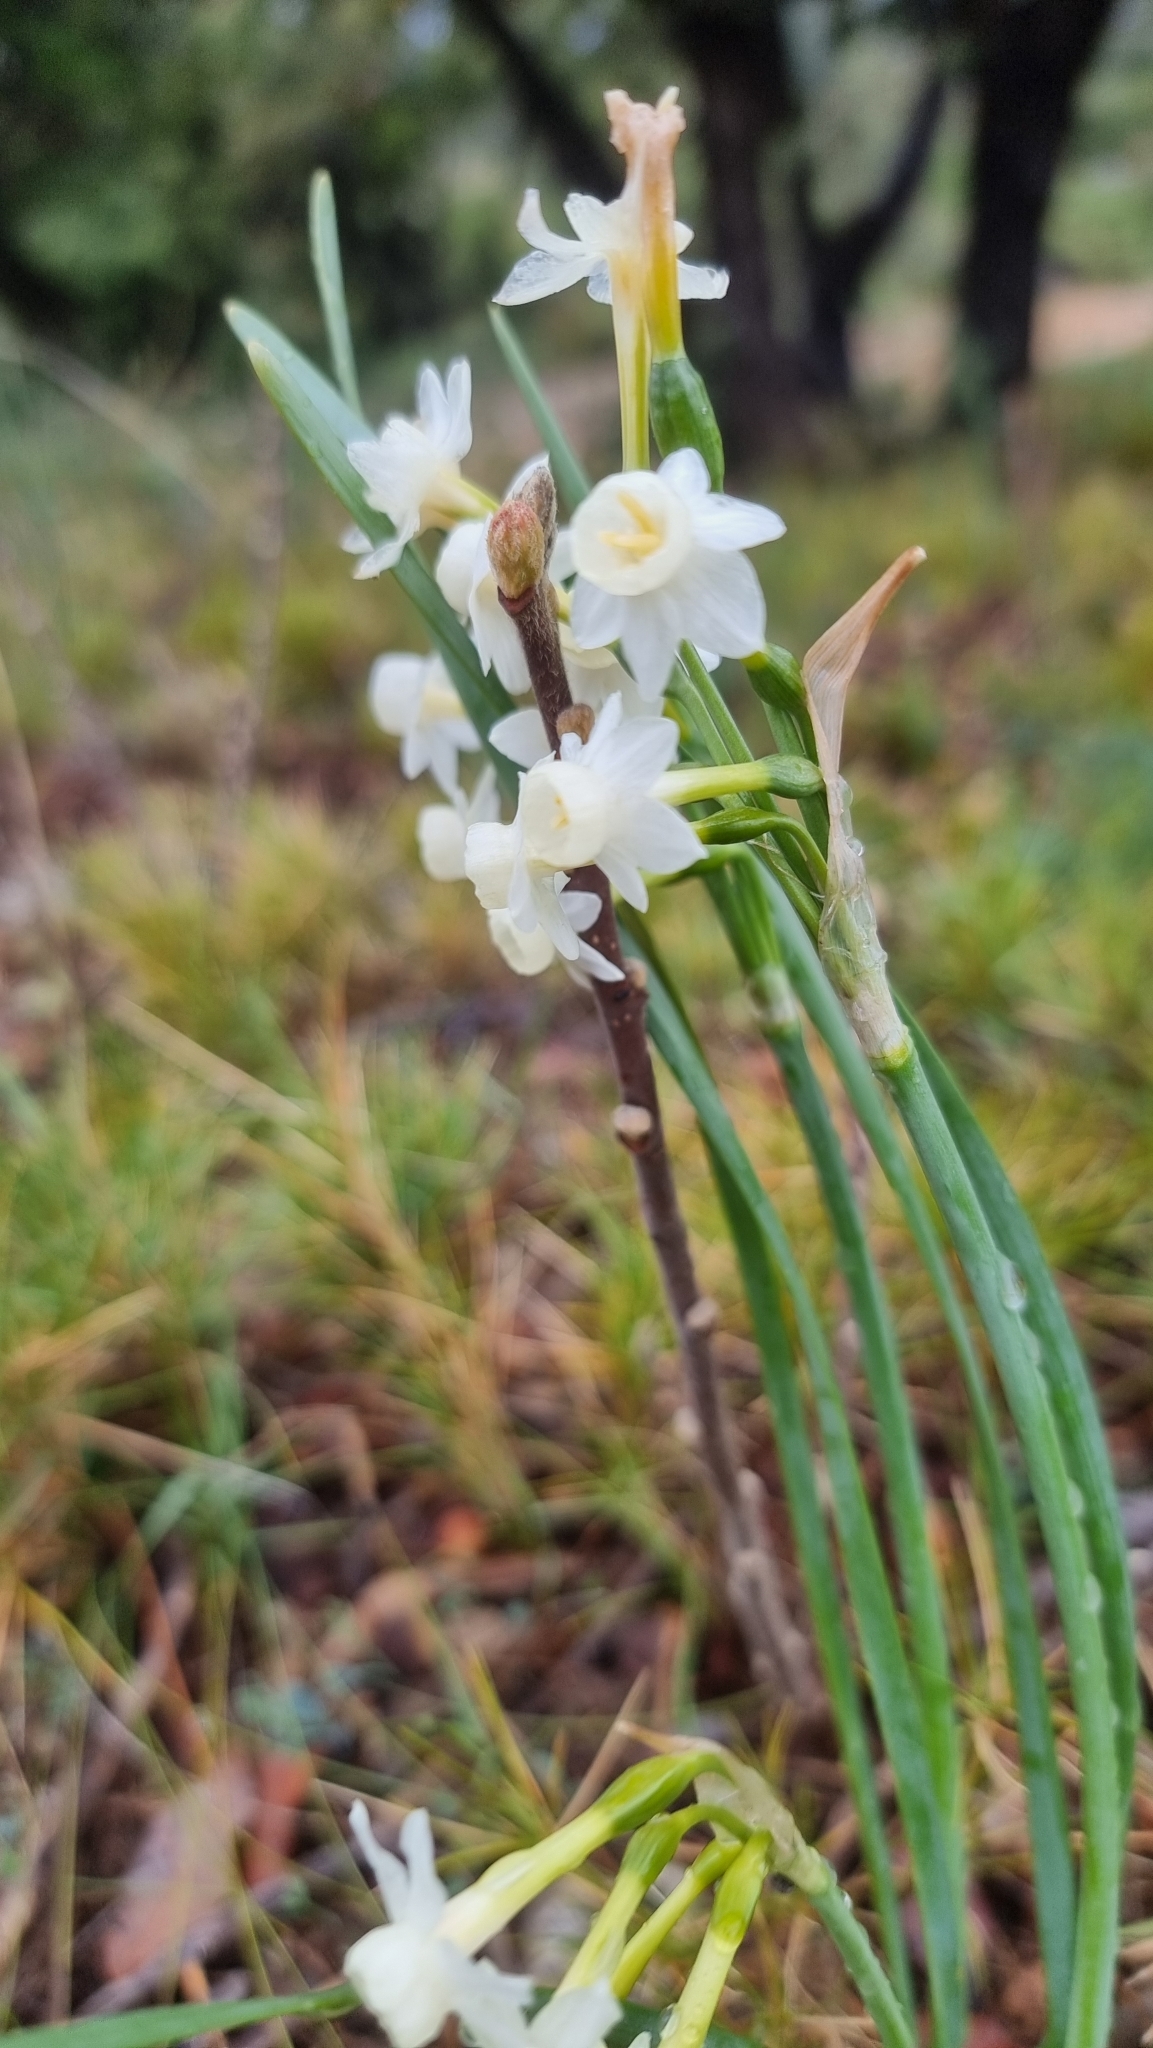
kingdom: Plantae
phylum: Tracheophyta
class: Liliopsida
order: Asparagales
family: Amaryllidaceae
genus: Narcissus
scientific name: Narcissus dubius
